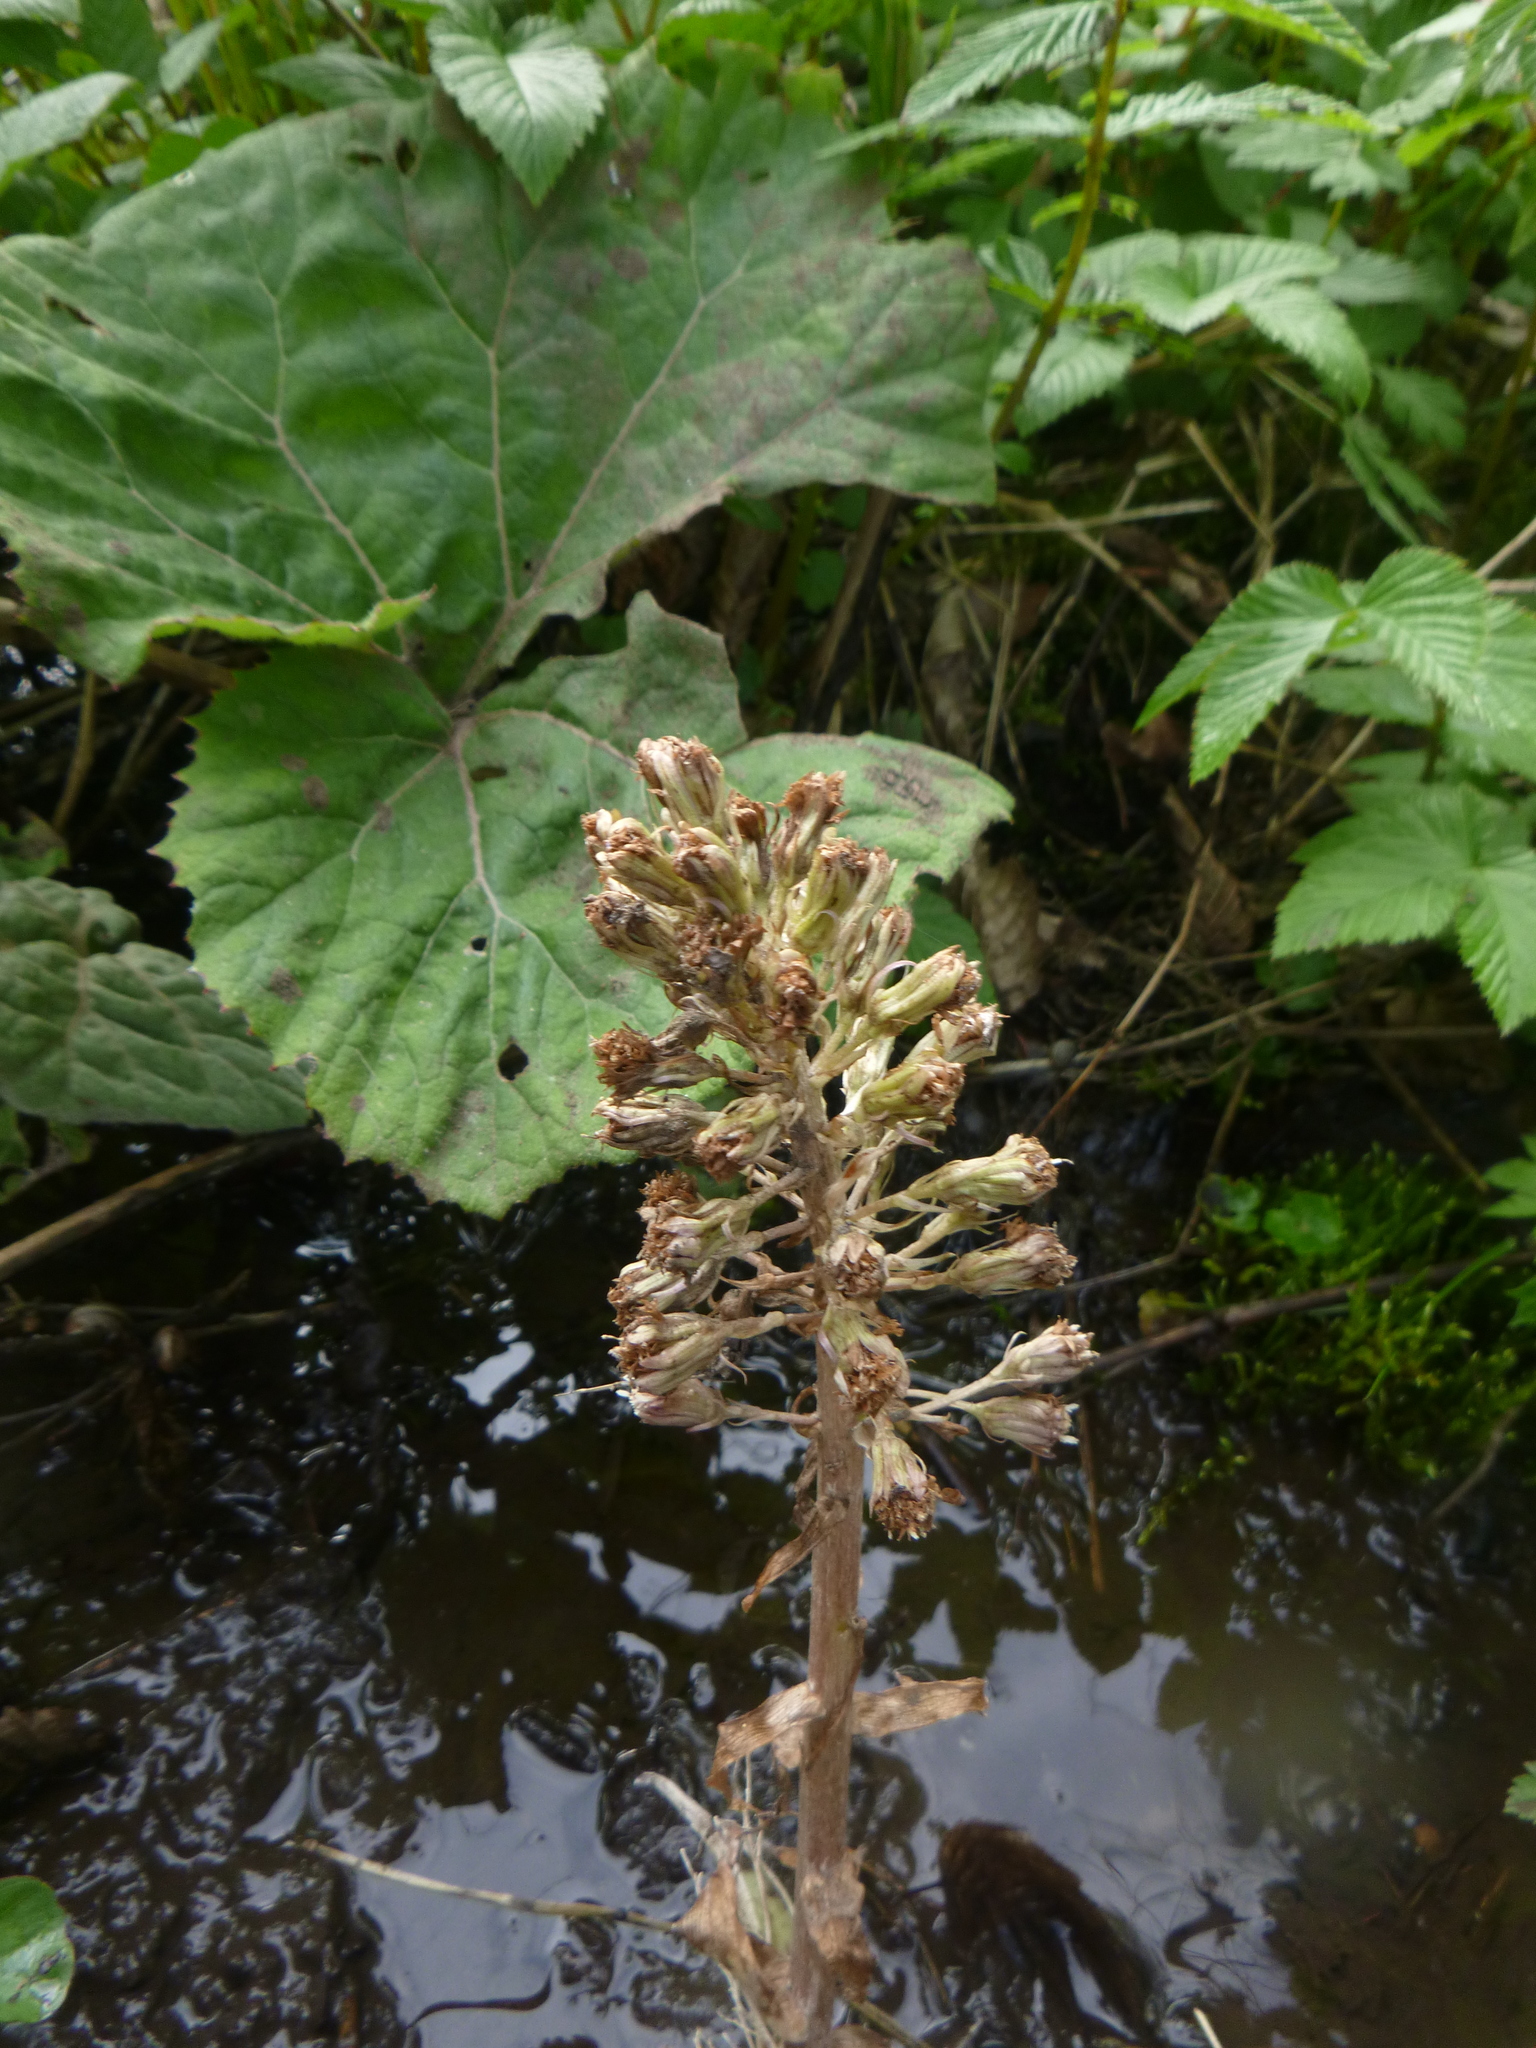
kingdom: Plantae
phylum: Tracheophyta
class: Magnoliopsida
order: Asterales
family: Asteraceae
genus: Petasites
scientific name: Petasites hybridus
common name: Butterbur
